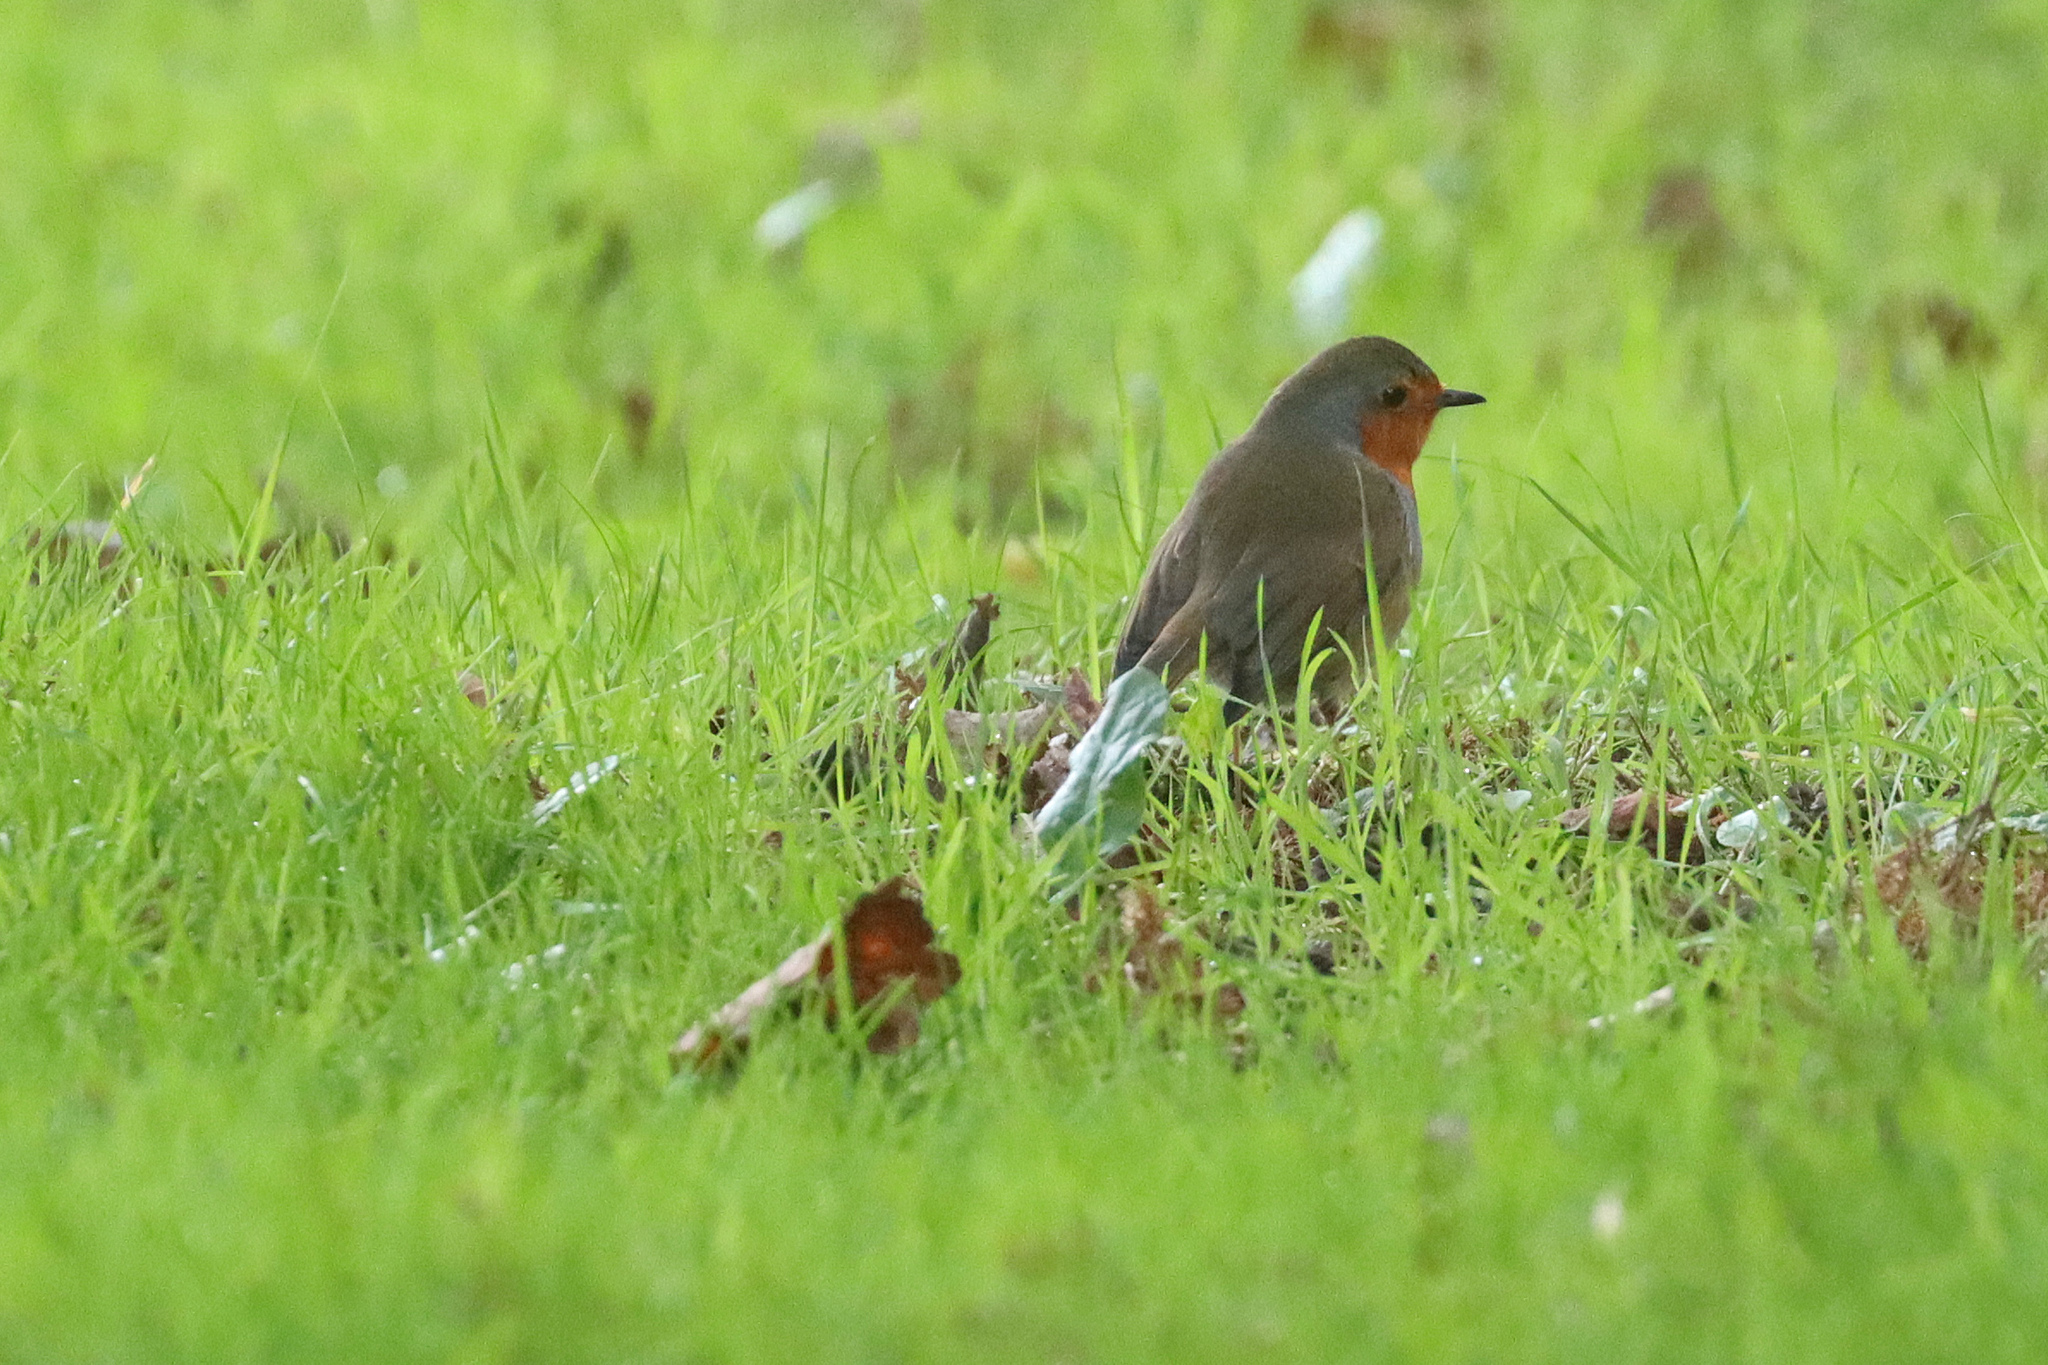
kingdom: Animalia
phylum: Chordata
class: Aves
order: Passeriformes
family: Muscicapidae
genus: Erithacus
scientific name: Erithacus rubecula
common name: European robin
